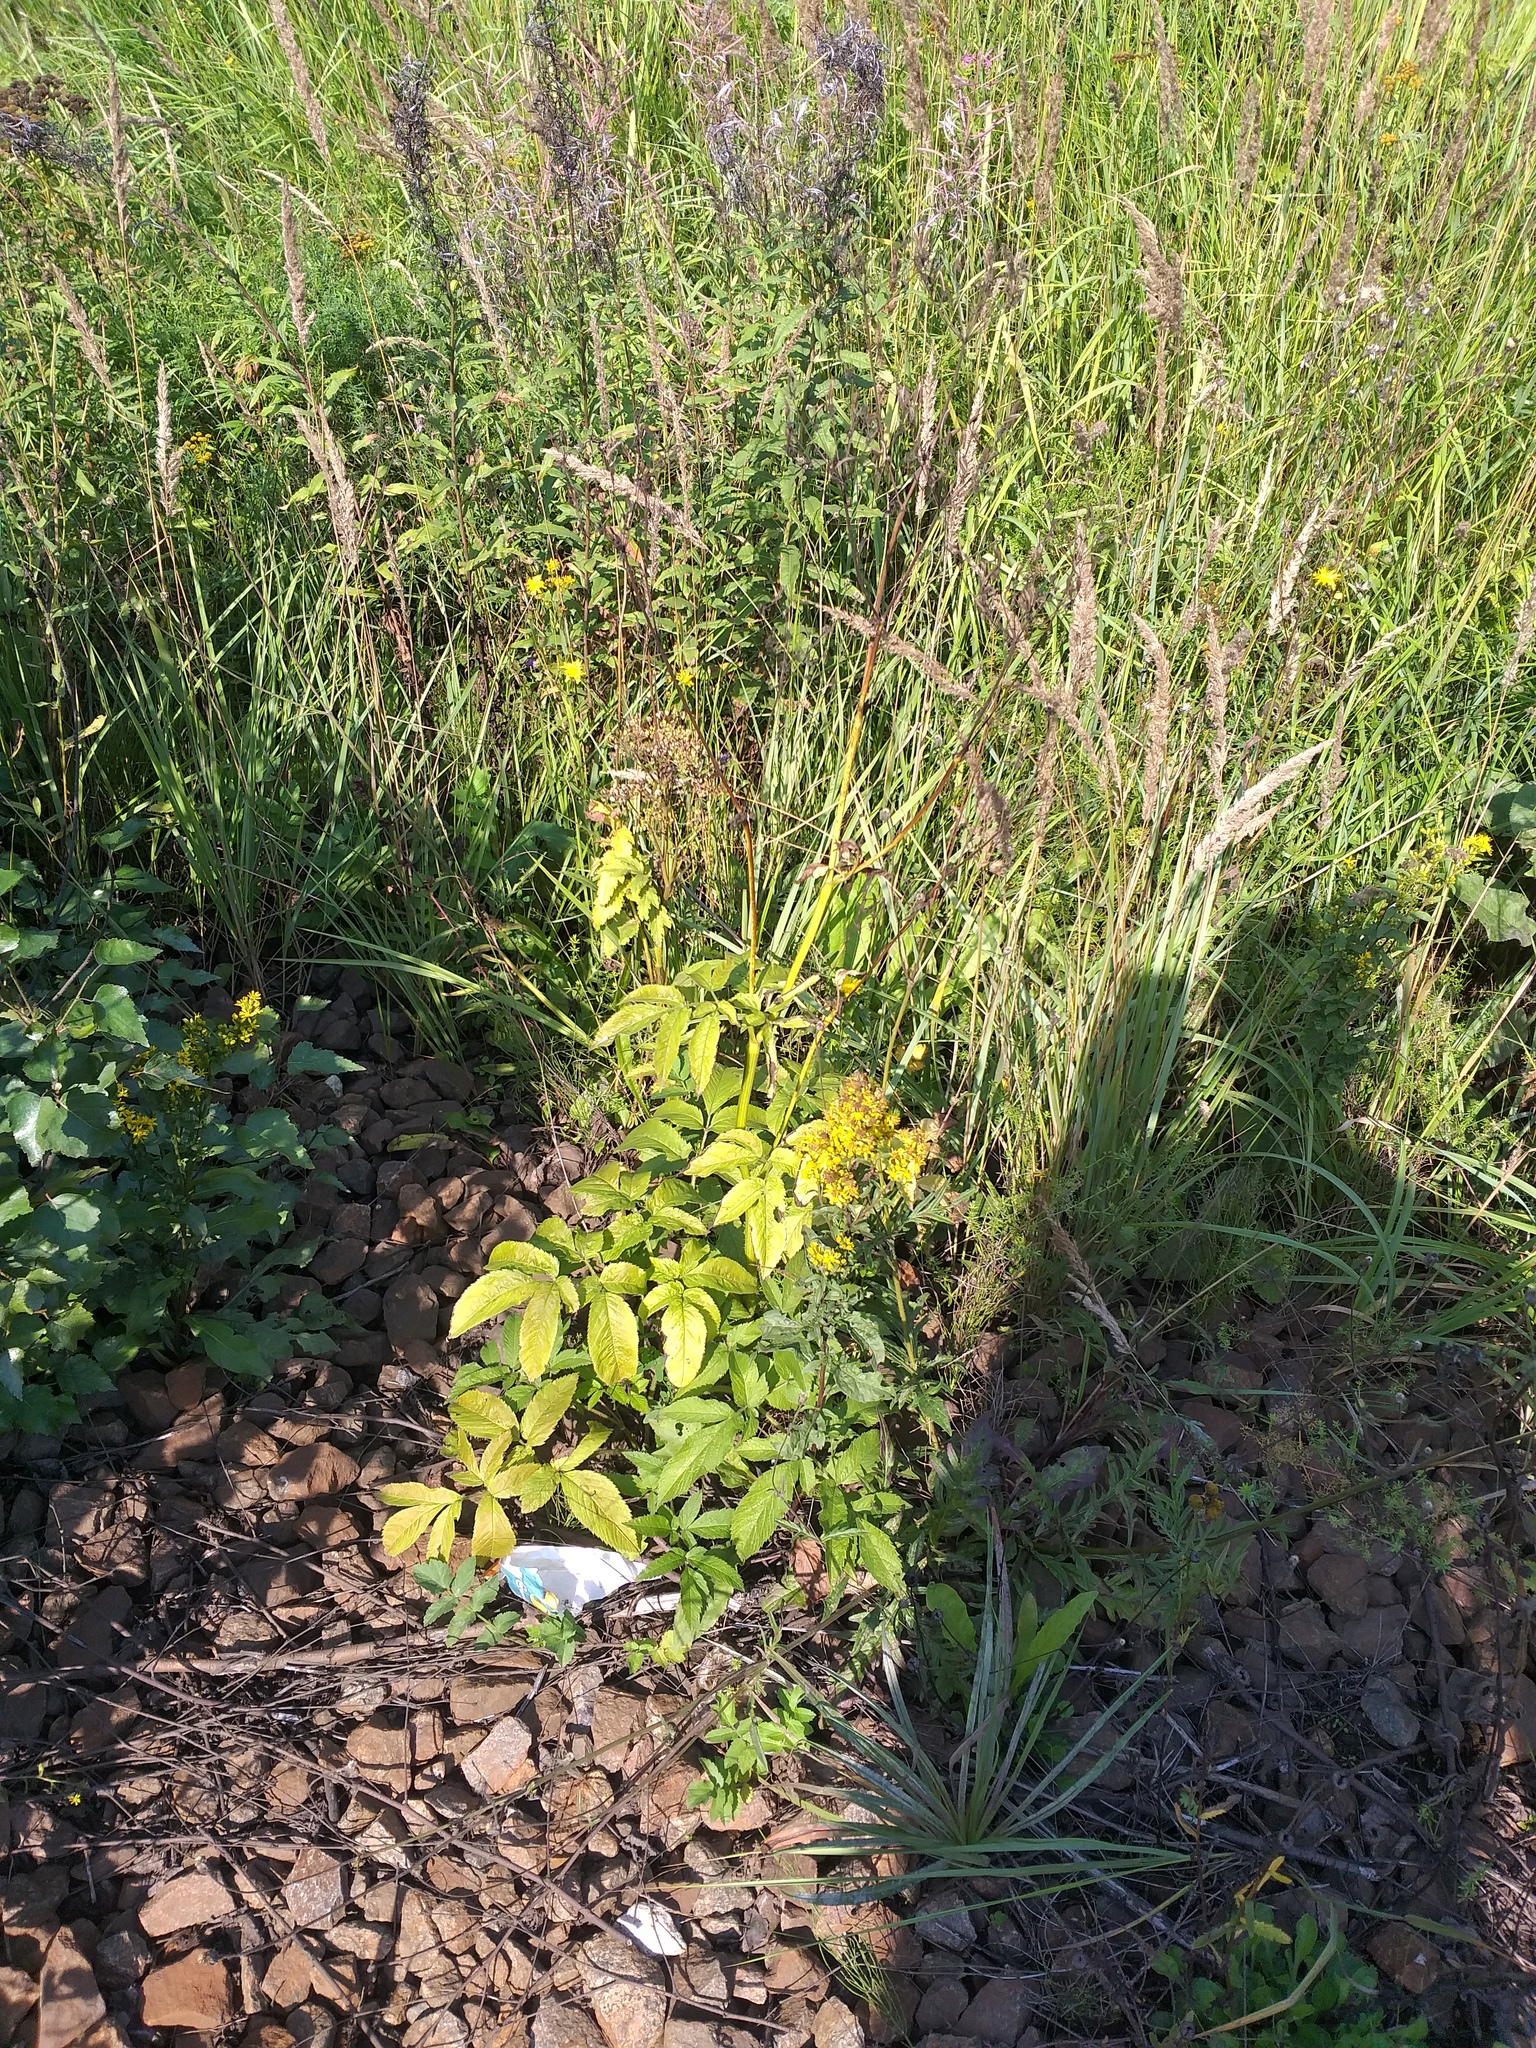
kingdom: Plantae
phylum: Tracheophyta
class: Magnoliopsida
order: Apiales
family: Apiaceae
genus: Chaerophyllum
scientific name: Chaerophyllum aromaticum
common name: Broadleaf chervil
